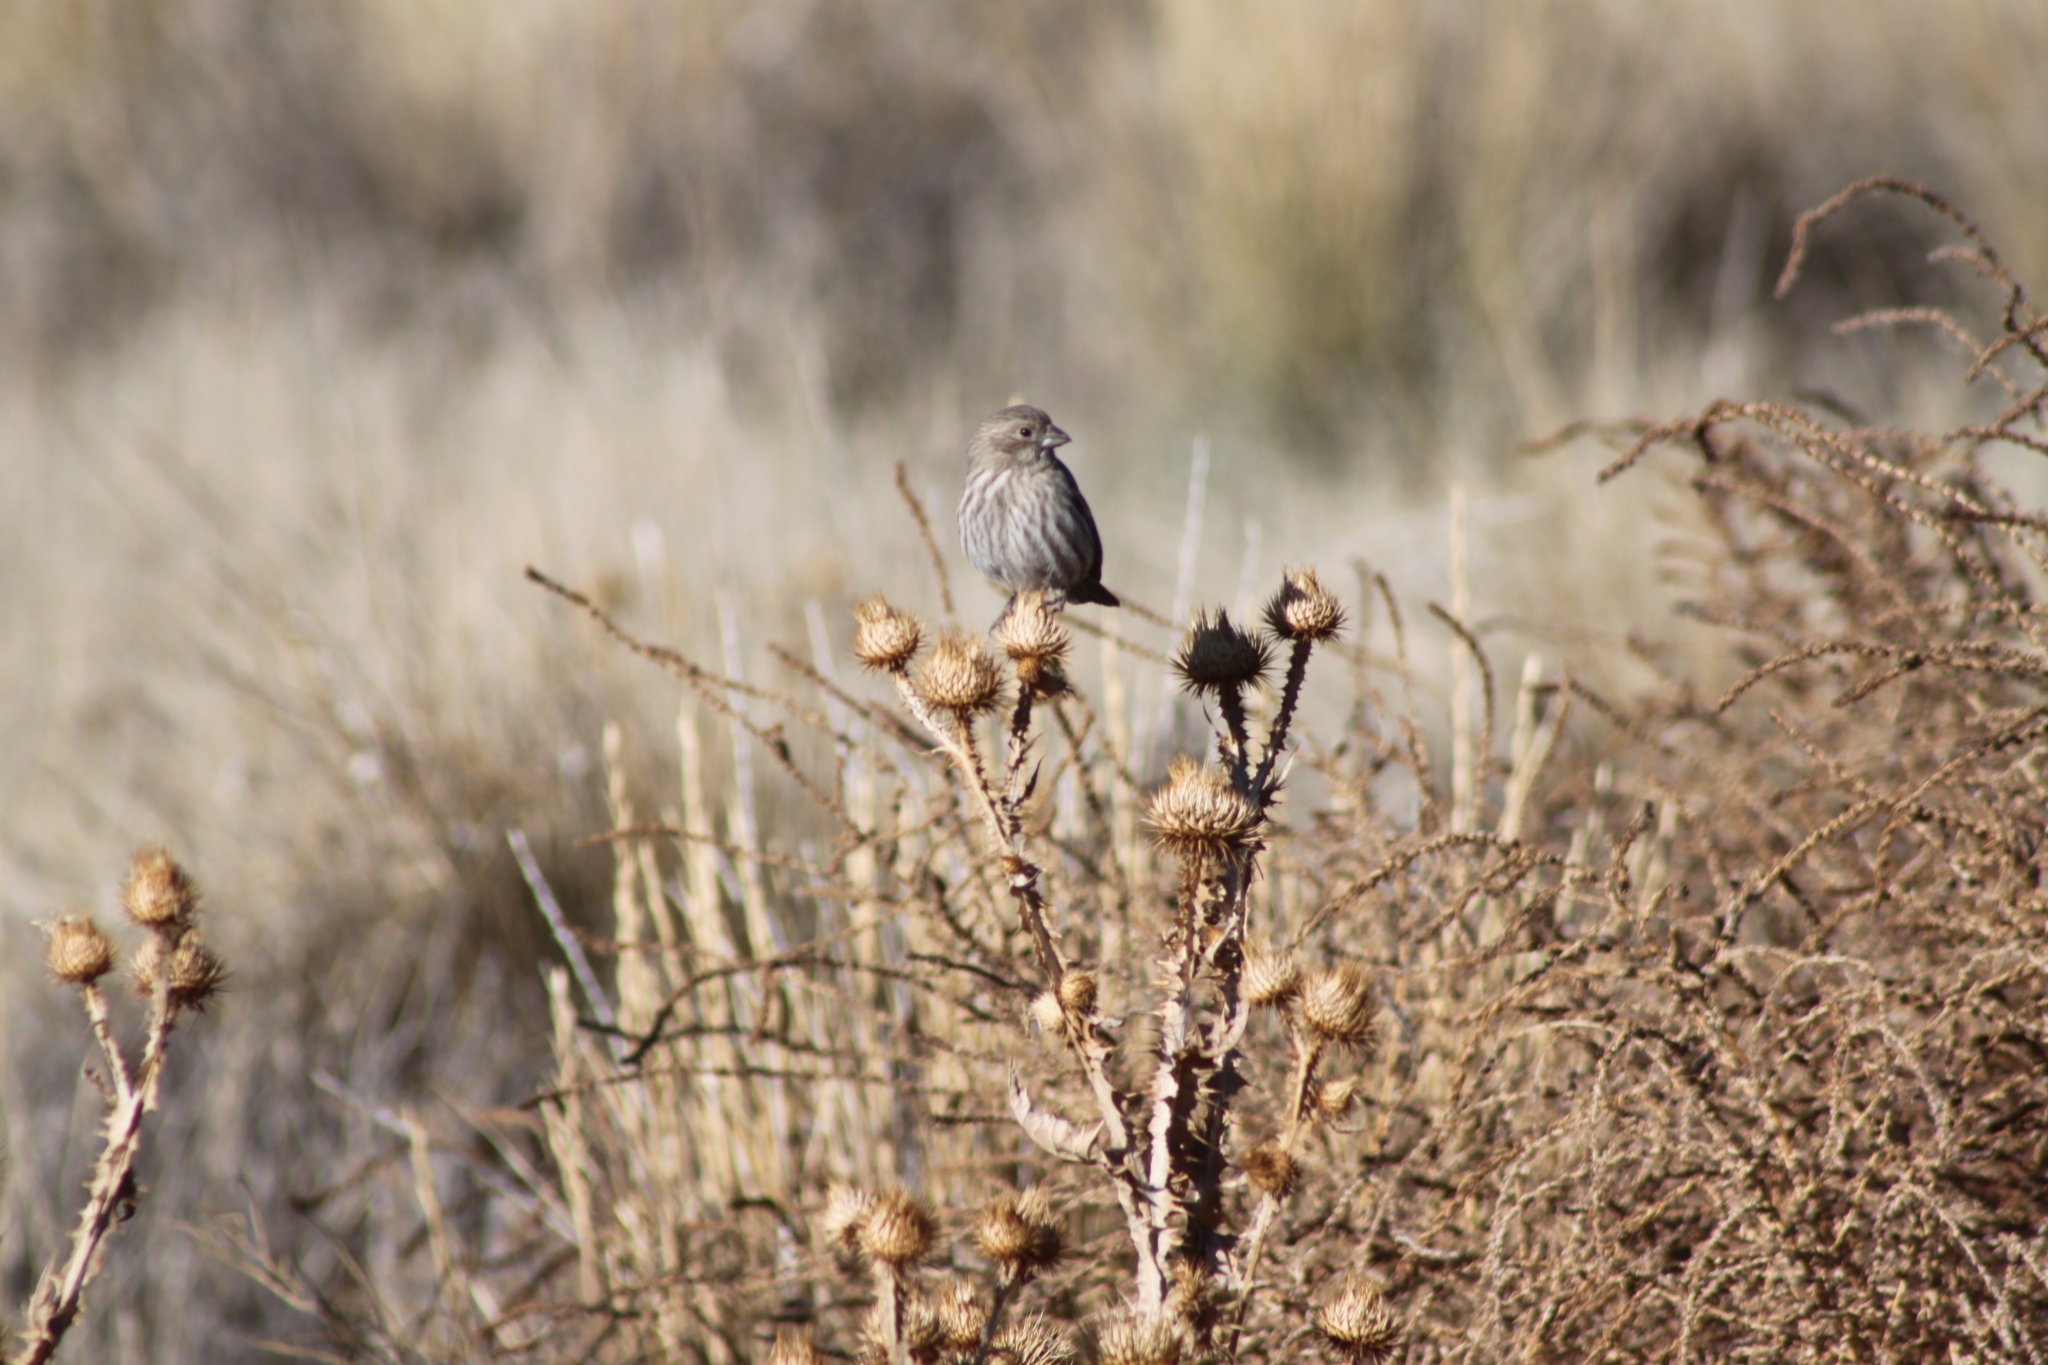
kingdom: Animalia
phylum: Chordata
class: Aves
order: Passeriformes
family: Fringillidae
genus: Haemorhous
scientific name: Haemorhous mexicanus
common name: House finch
